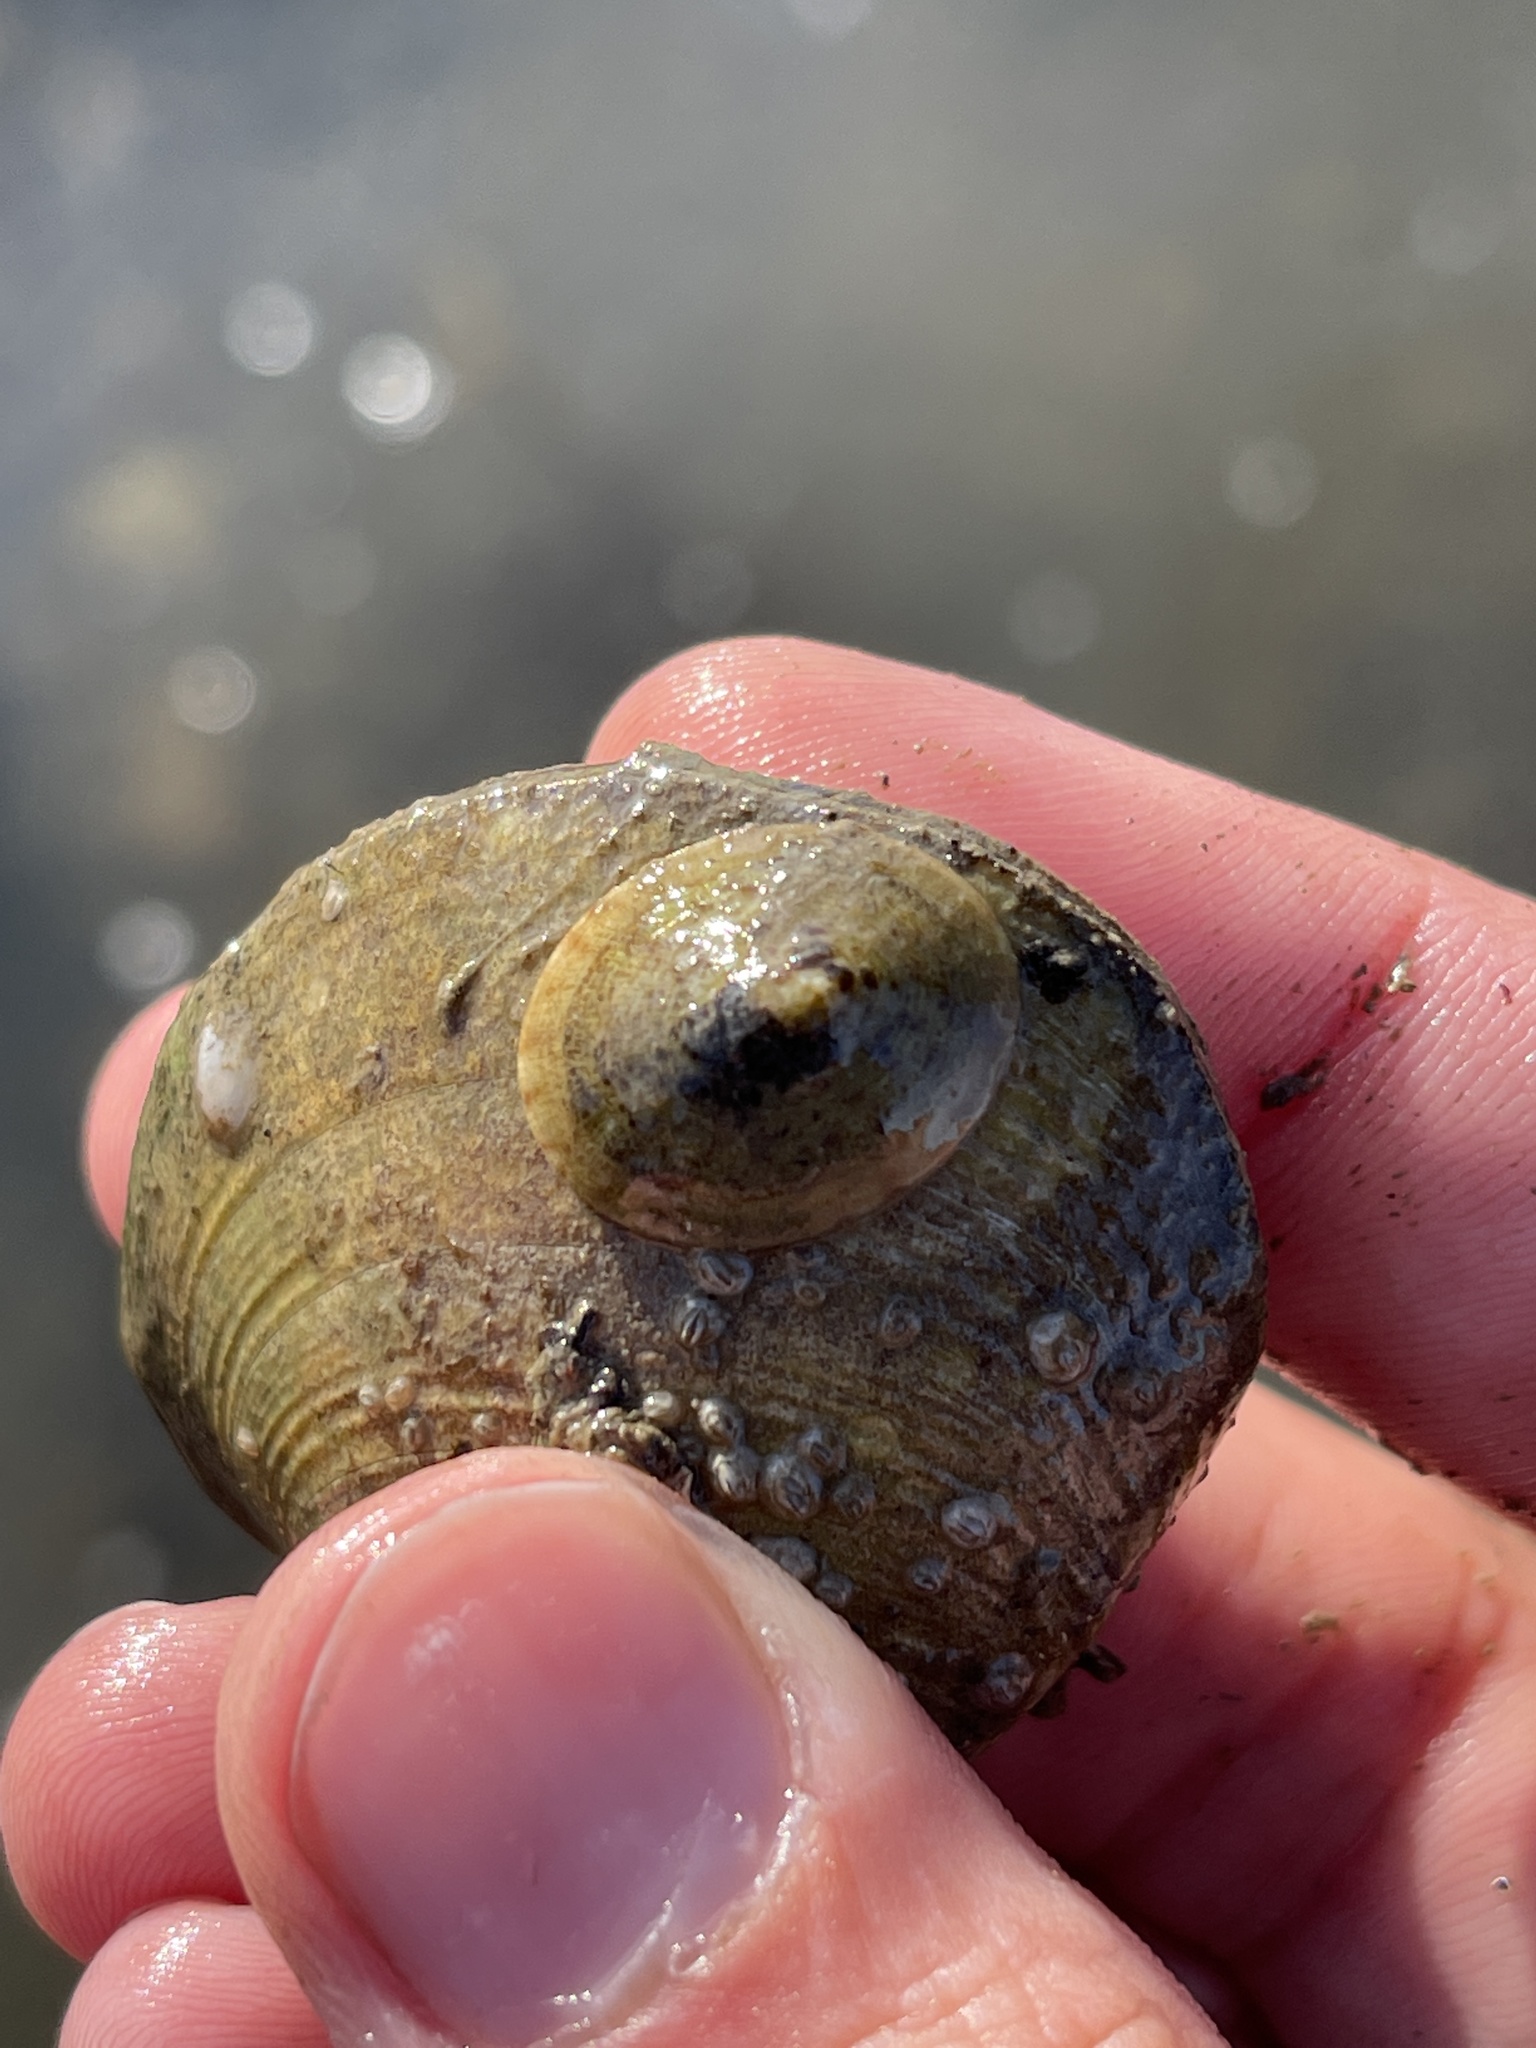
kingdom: Animalia
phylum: Mollusca
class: Gastropoda
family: Lottiidae
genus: Testudinalia
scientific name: Testudinalia testudinalis
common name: Common tortoiseshell limpet
